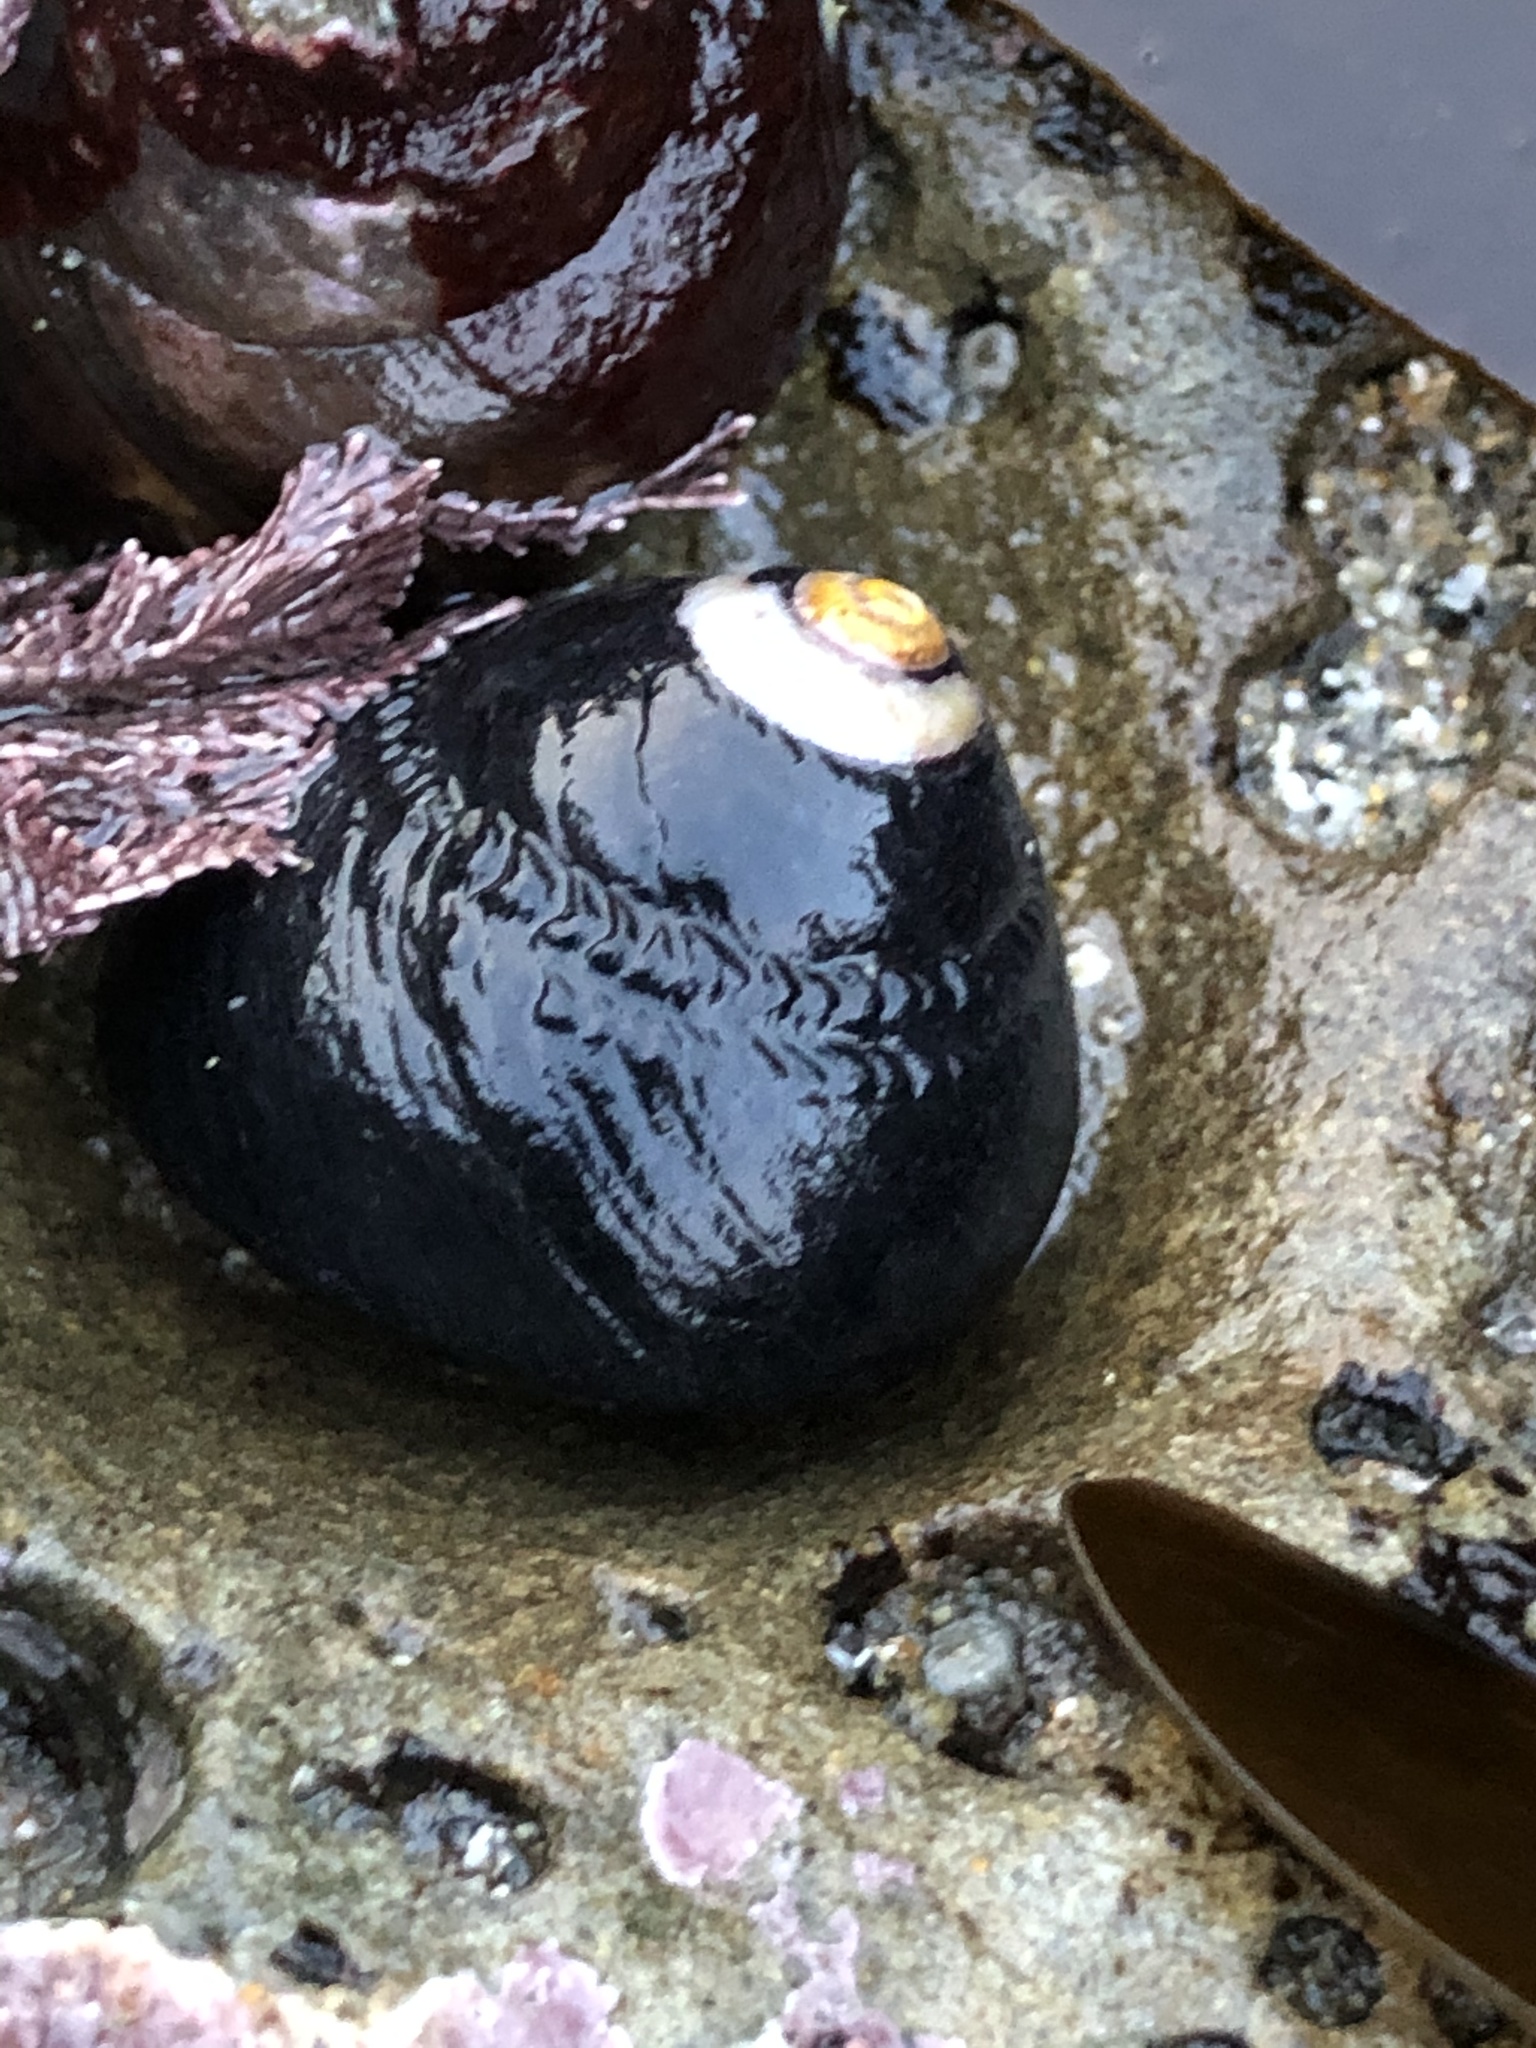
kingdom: Animalia
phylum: Mollusca
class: Gastropoda
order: Trochida
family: Tegulidae
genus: Tegula
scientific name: Tegula funebralis
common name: Black tegula
